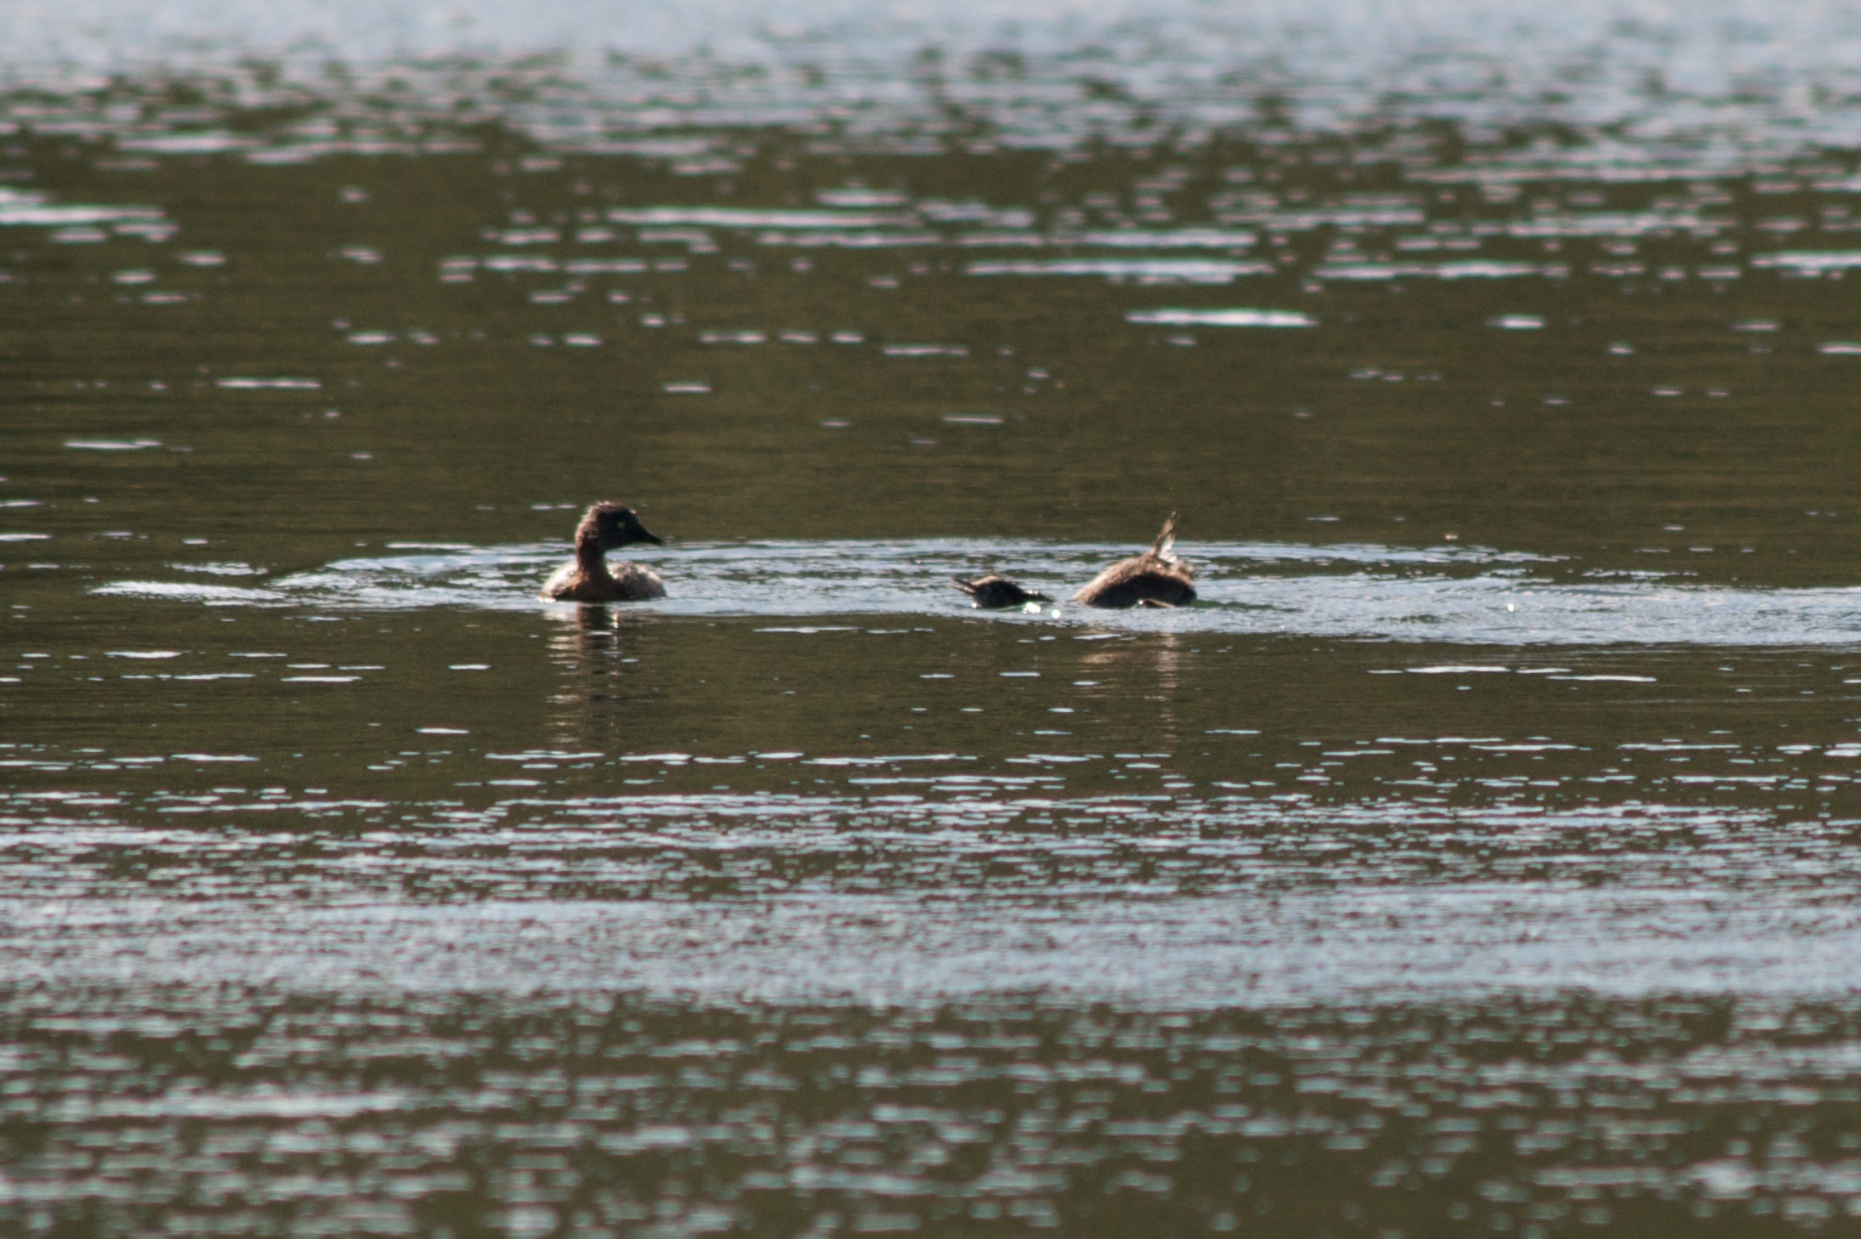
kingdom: Animalia
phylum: Chordata
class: Aves
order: Podicipediformes
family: Podicipedidae
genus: Poliocephalus
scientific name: Poliocephalus rufopectus
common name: New zealand grebe
